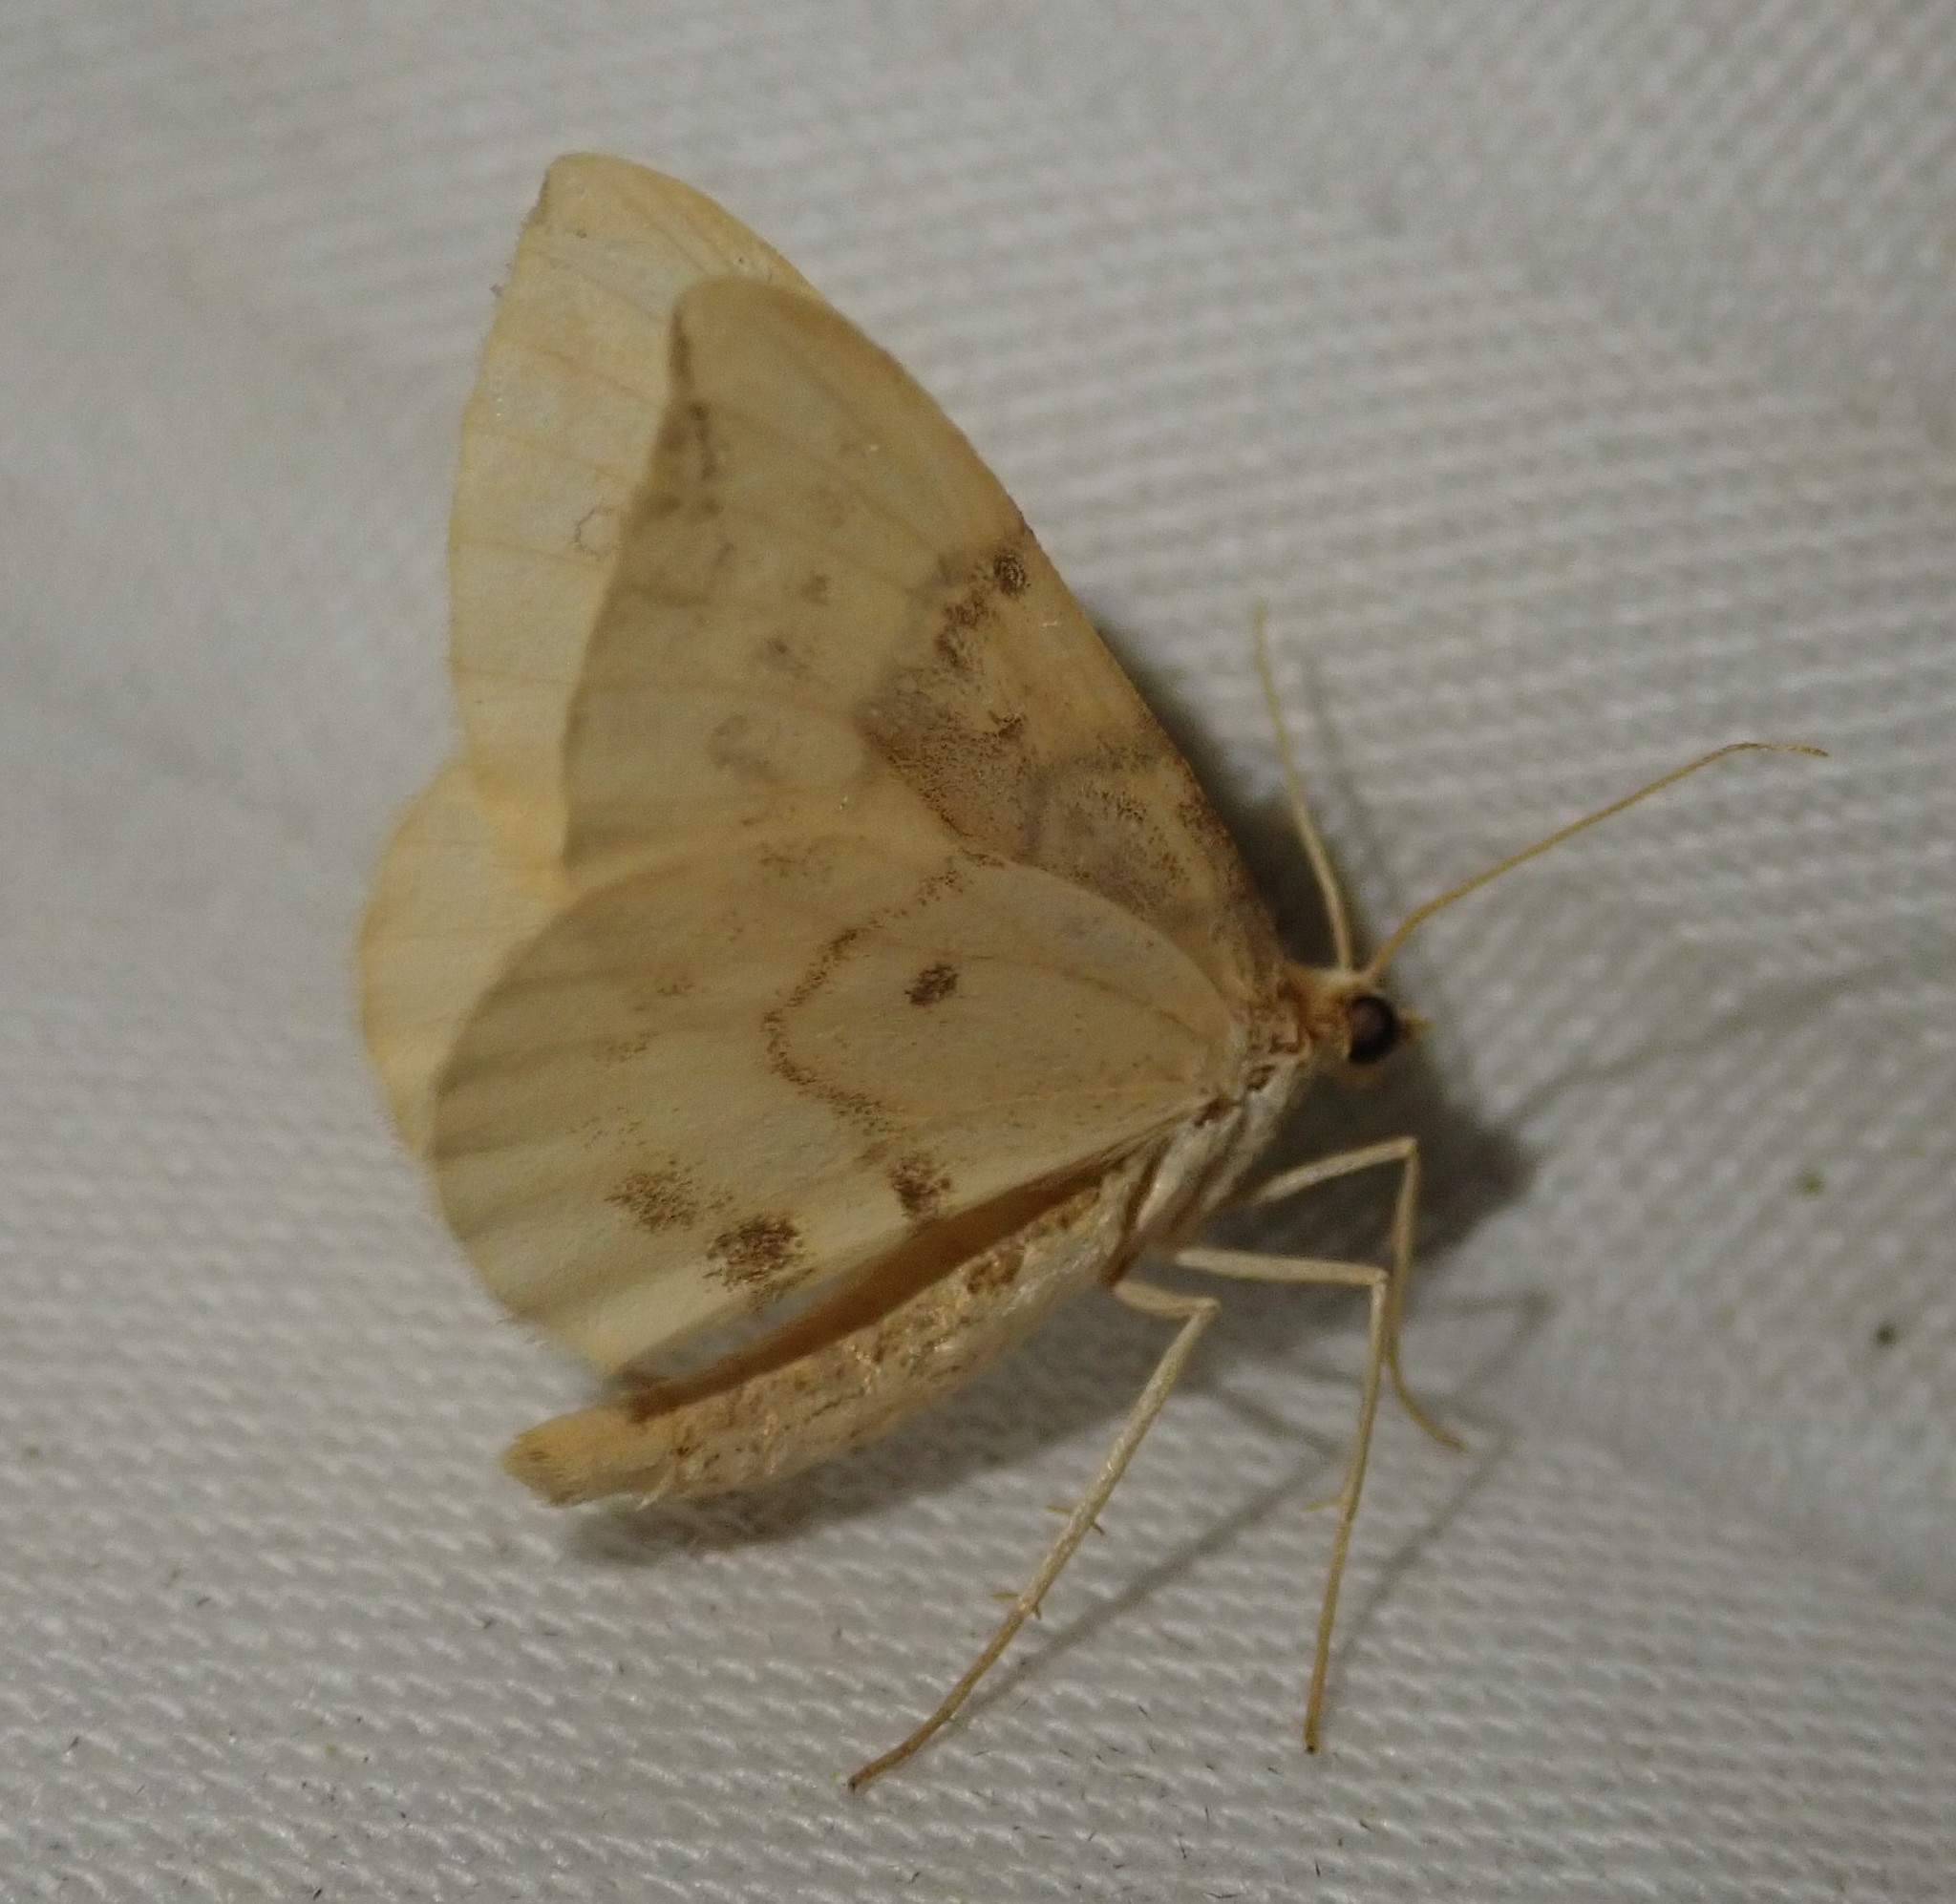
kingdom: Animalia
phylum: Arthropoda
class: Insecta
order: Lepidoptera
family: Geometridae
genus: Eulithis
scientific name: Eulithis pyraliata
